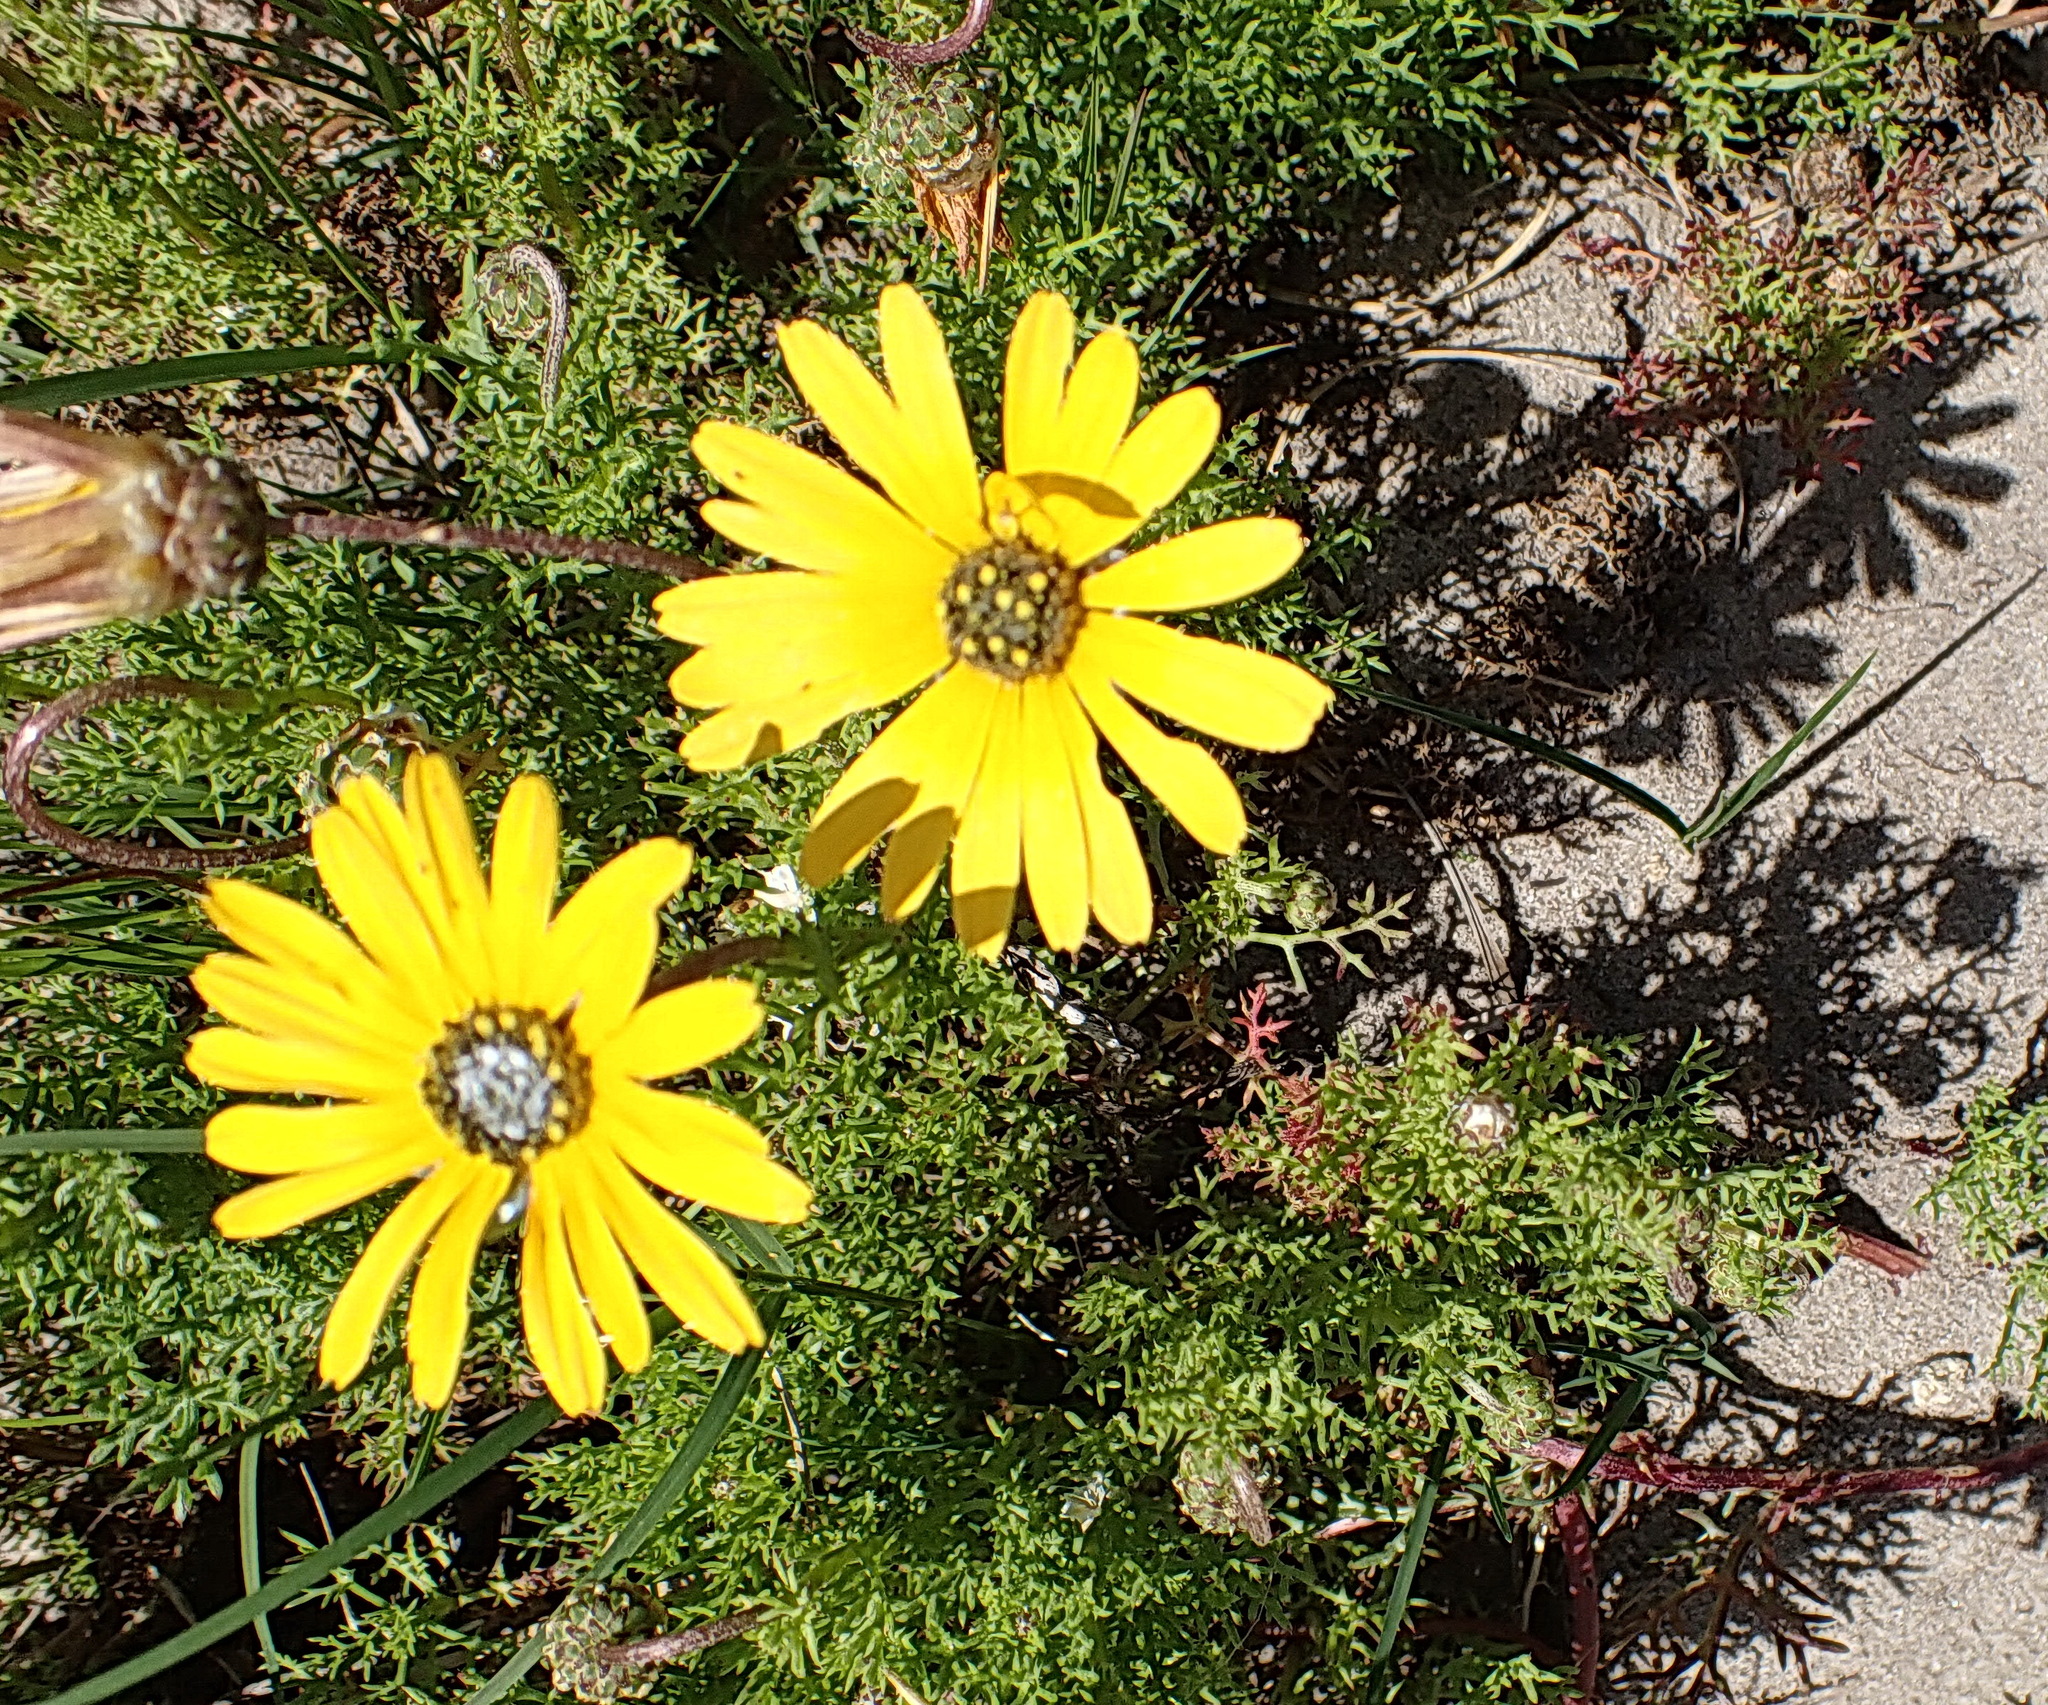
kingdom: Plantae
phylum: Tracheophyta
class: Magnoliopsida
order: Asterales
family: Asteraceae
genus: Ursinia
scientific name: Ursinia chrysanthemoides
